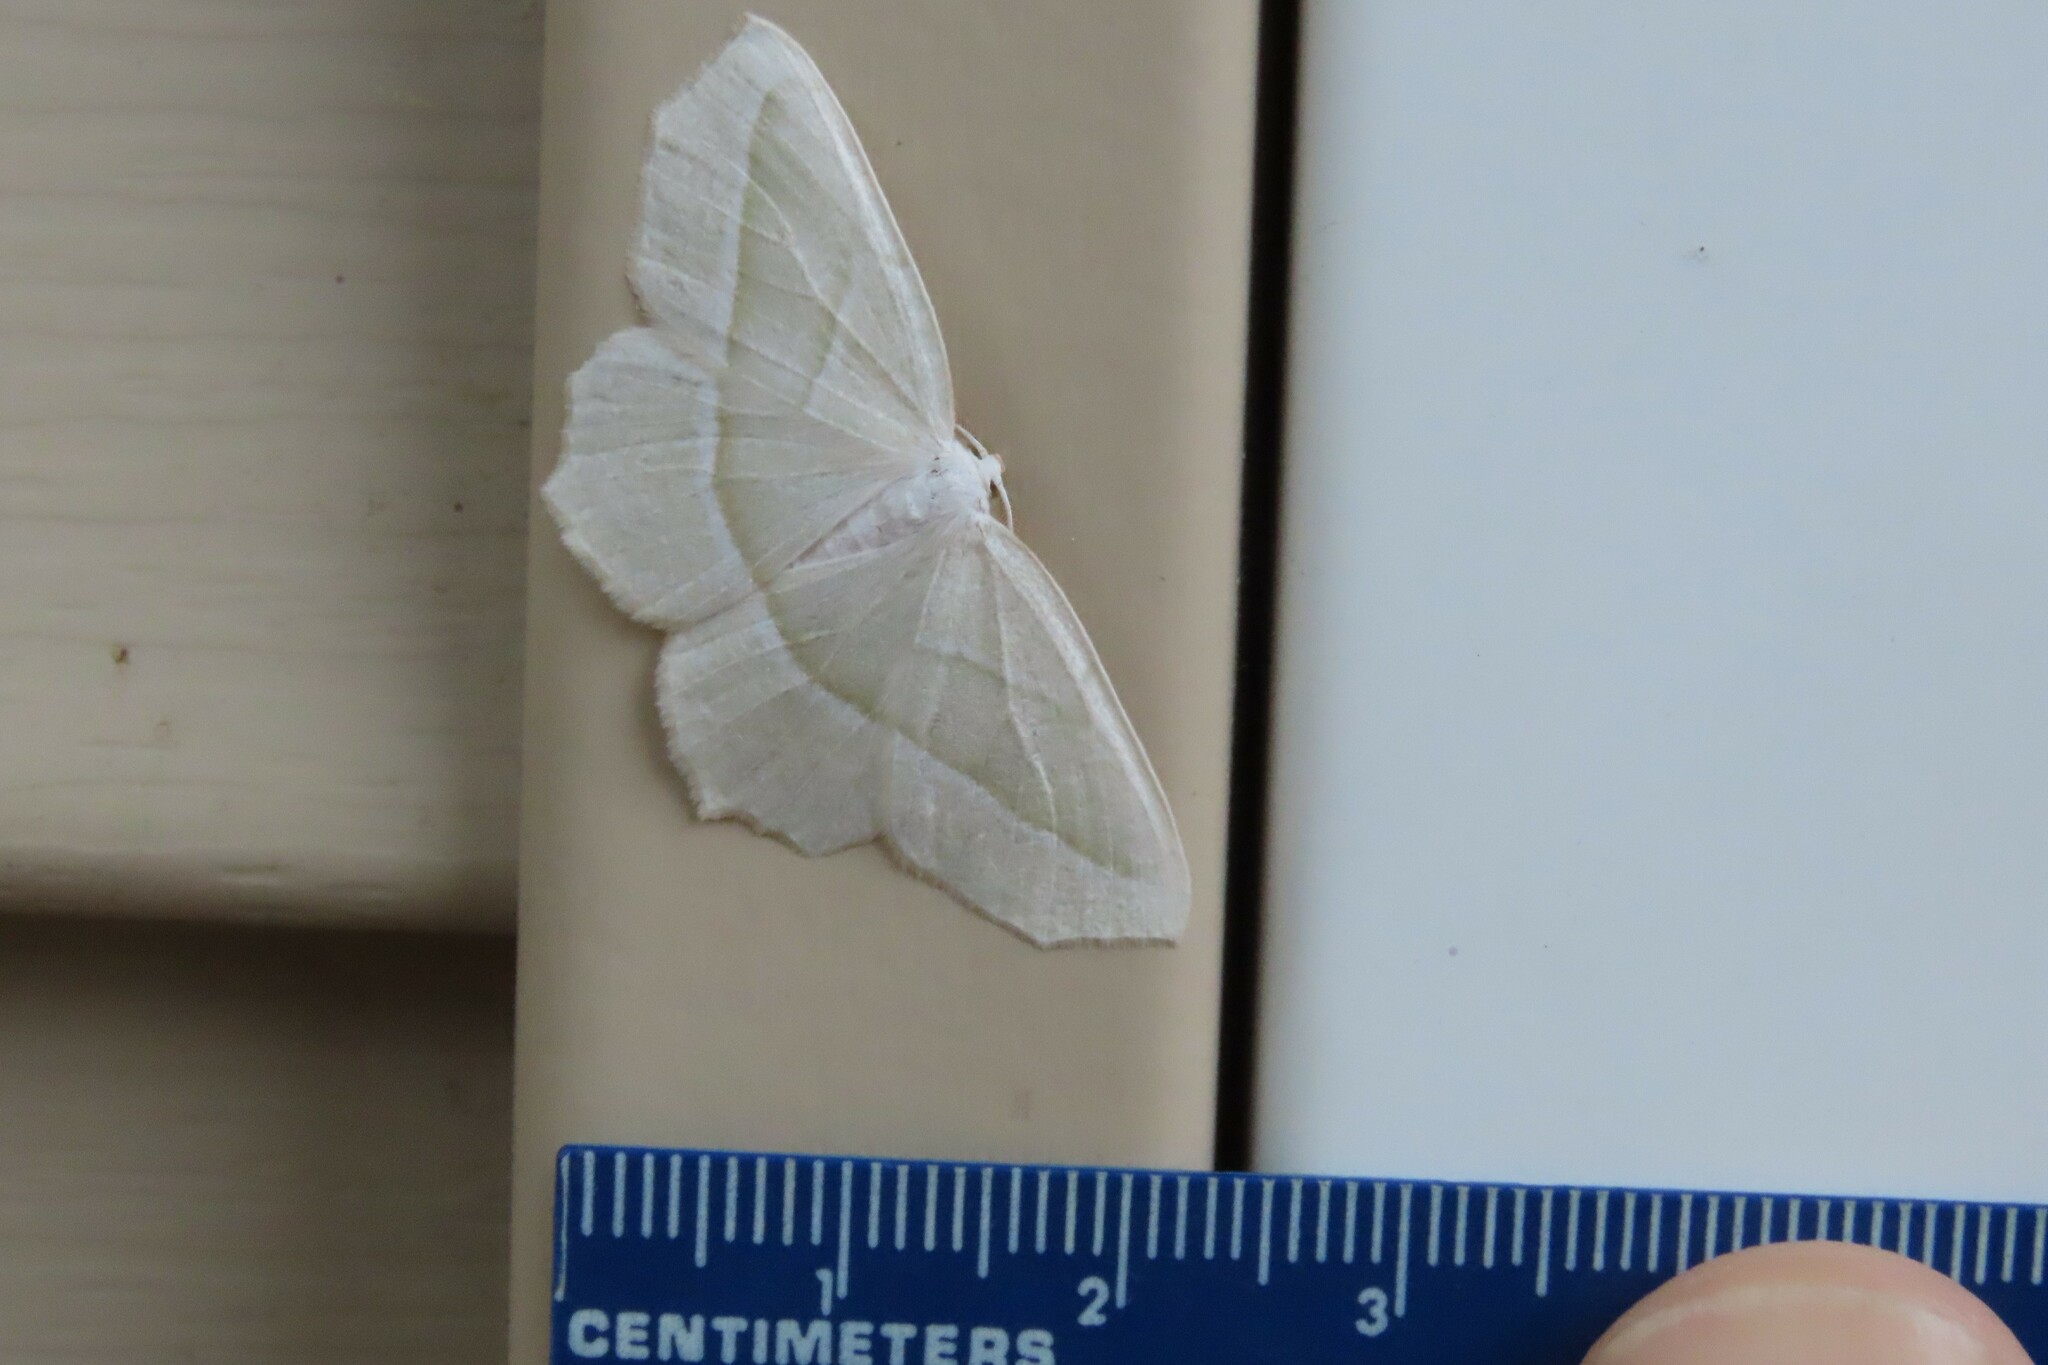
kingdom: Animalia
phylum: Arthropoda
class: Insecta
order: Lepidoptera
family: Geometridae
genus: Campaea
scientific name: Campaea perlata
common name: Fringed looper
